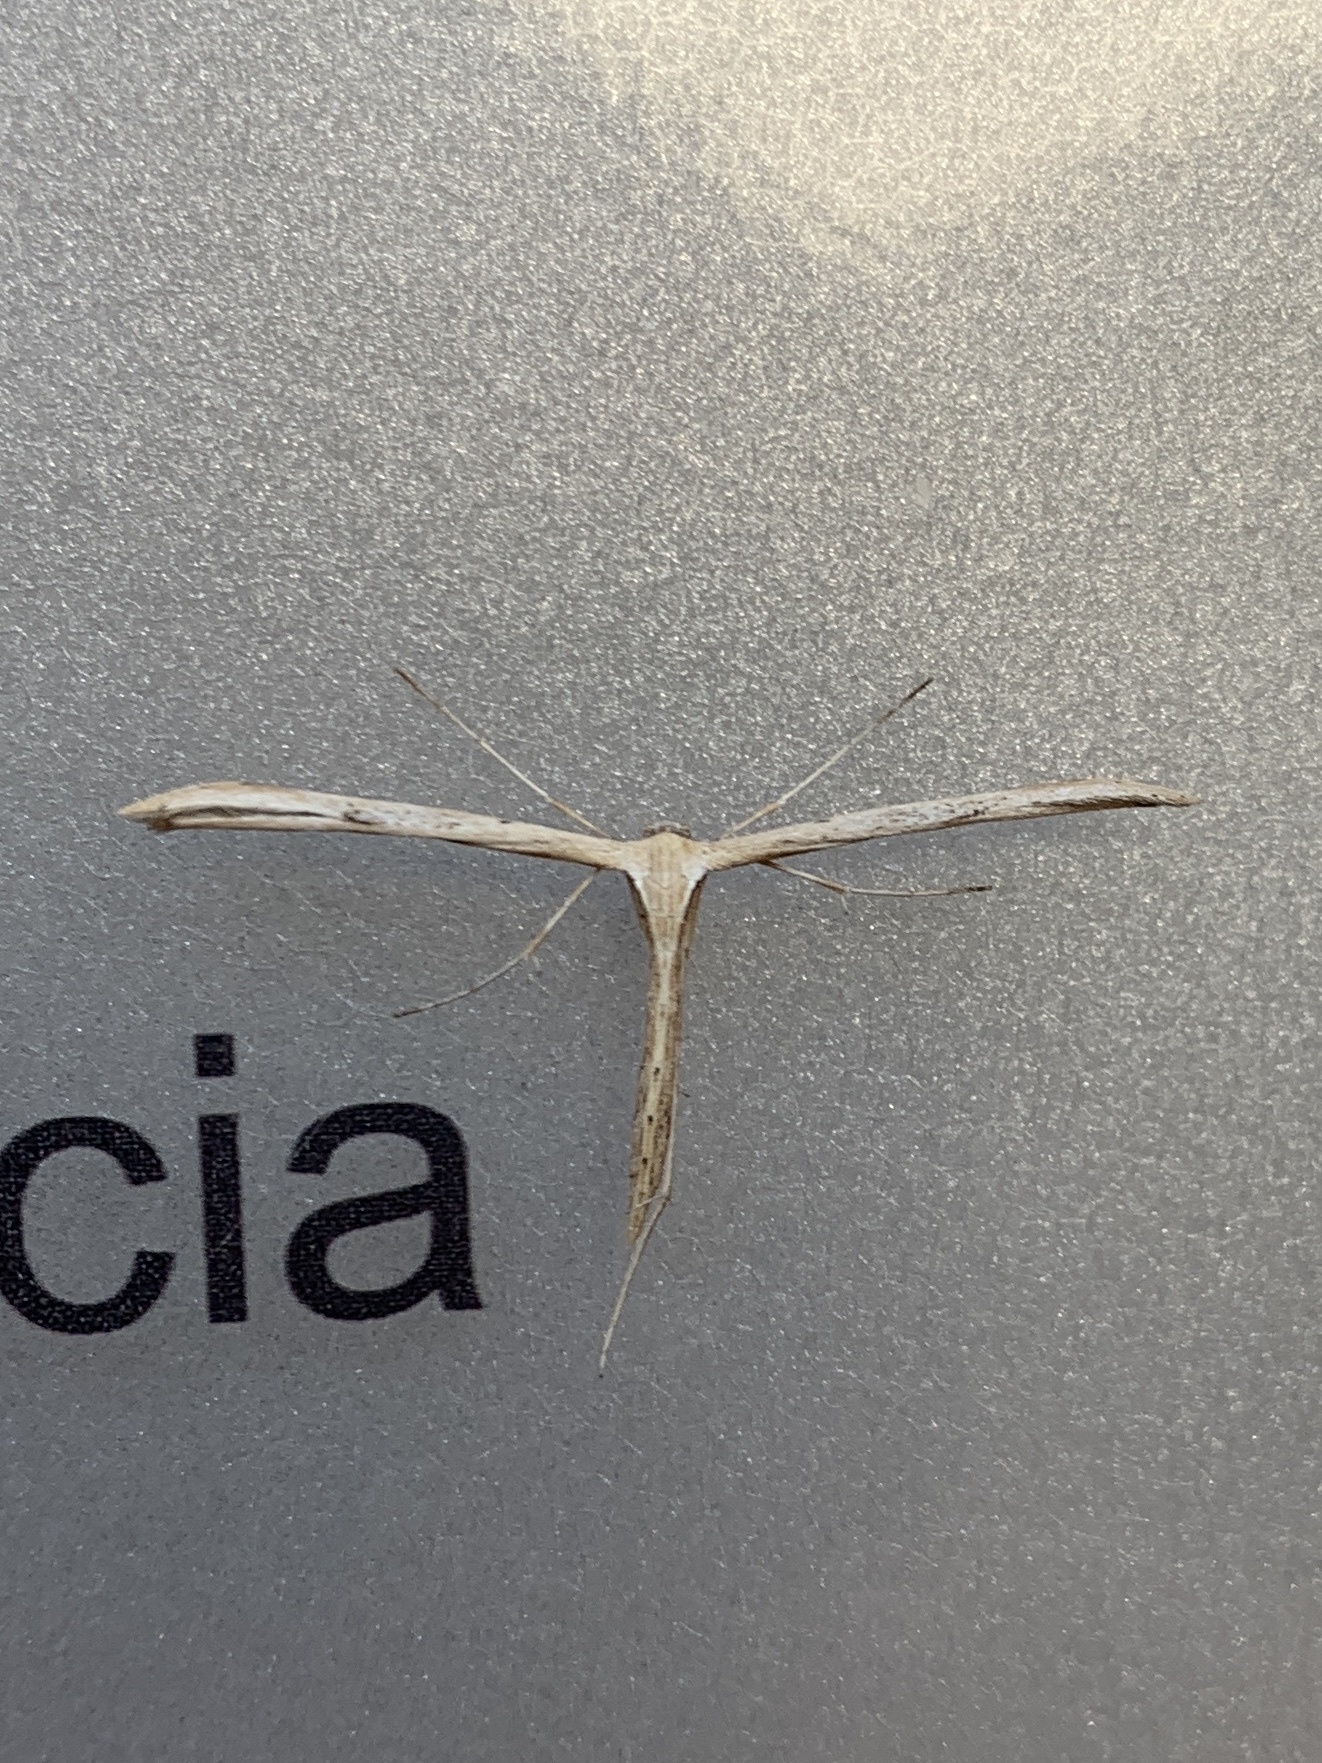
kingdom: Animalia
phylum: Arthropoda
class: Insecta
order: Lepidoptera
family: Pterophoridae
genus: Emmelina
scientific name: Emmelina monodactyla
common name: Common plume
